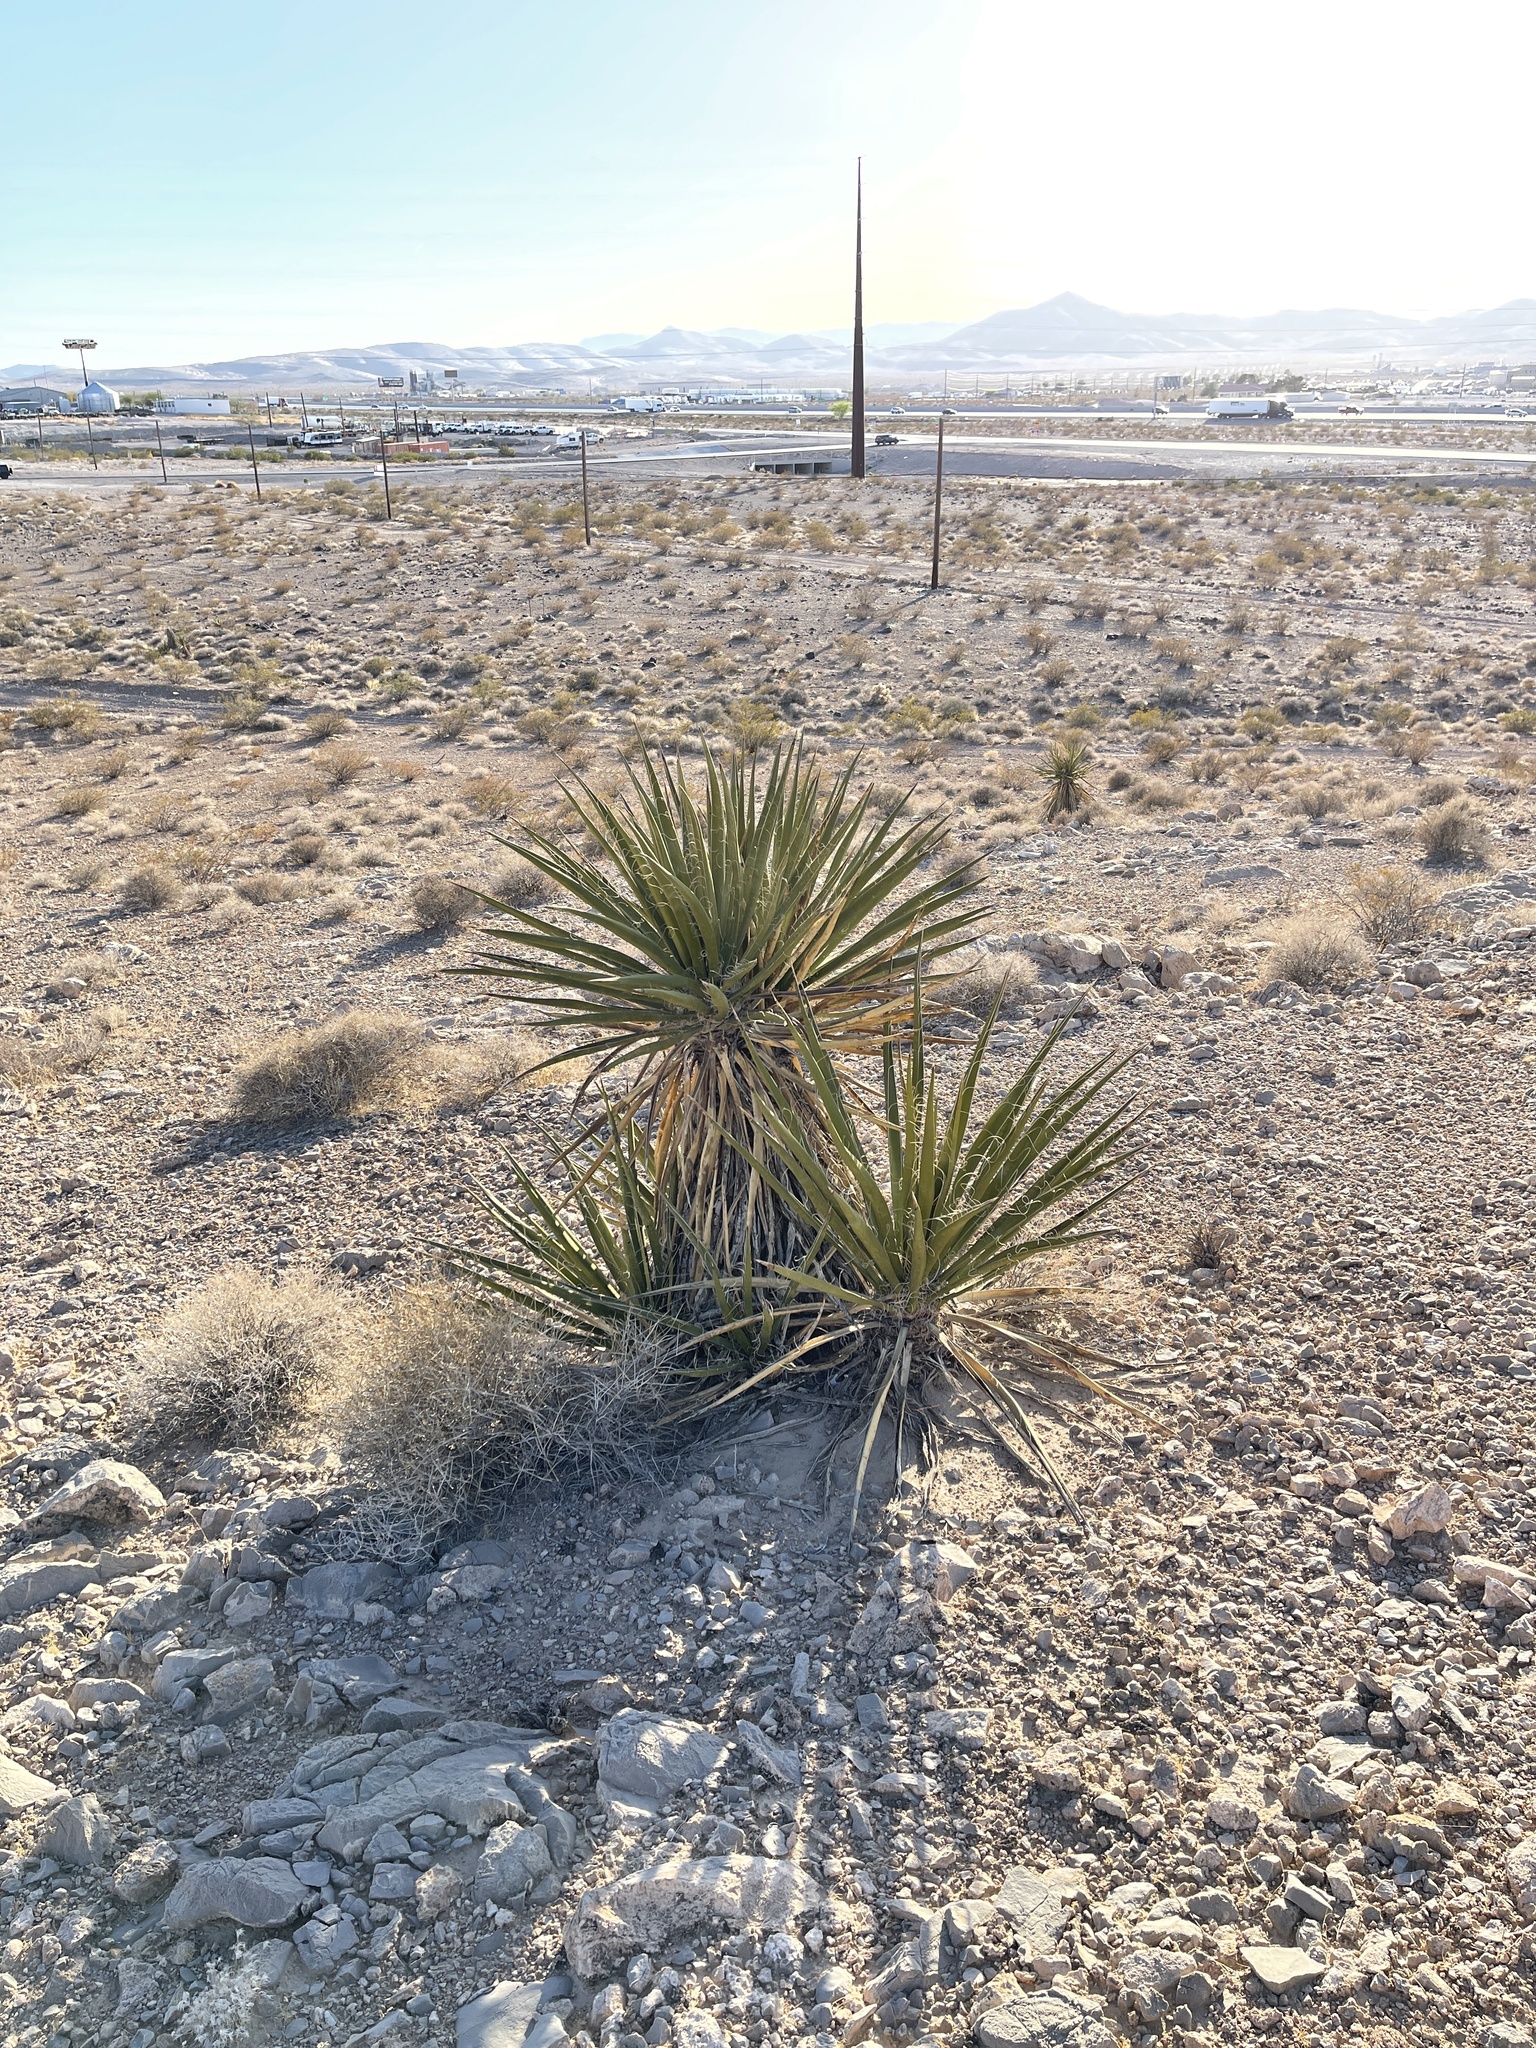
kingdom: Plantae
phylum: Tracheophyta
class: Liliopsida
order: Asparagales
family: Asparagaceae
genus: Yucca
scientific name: Yucca schidigera
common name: Mojave yucca
